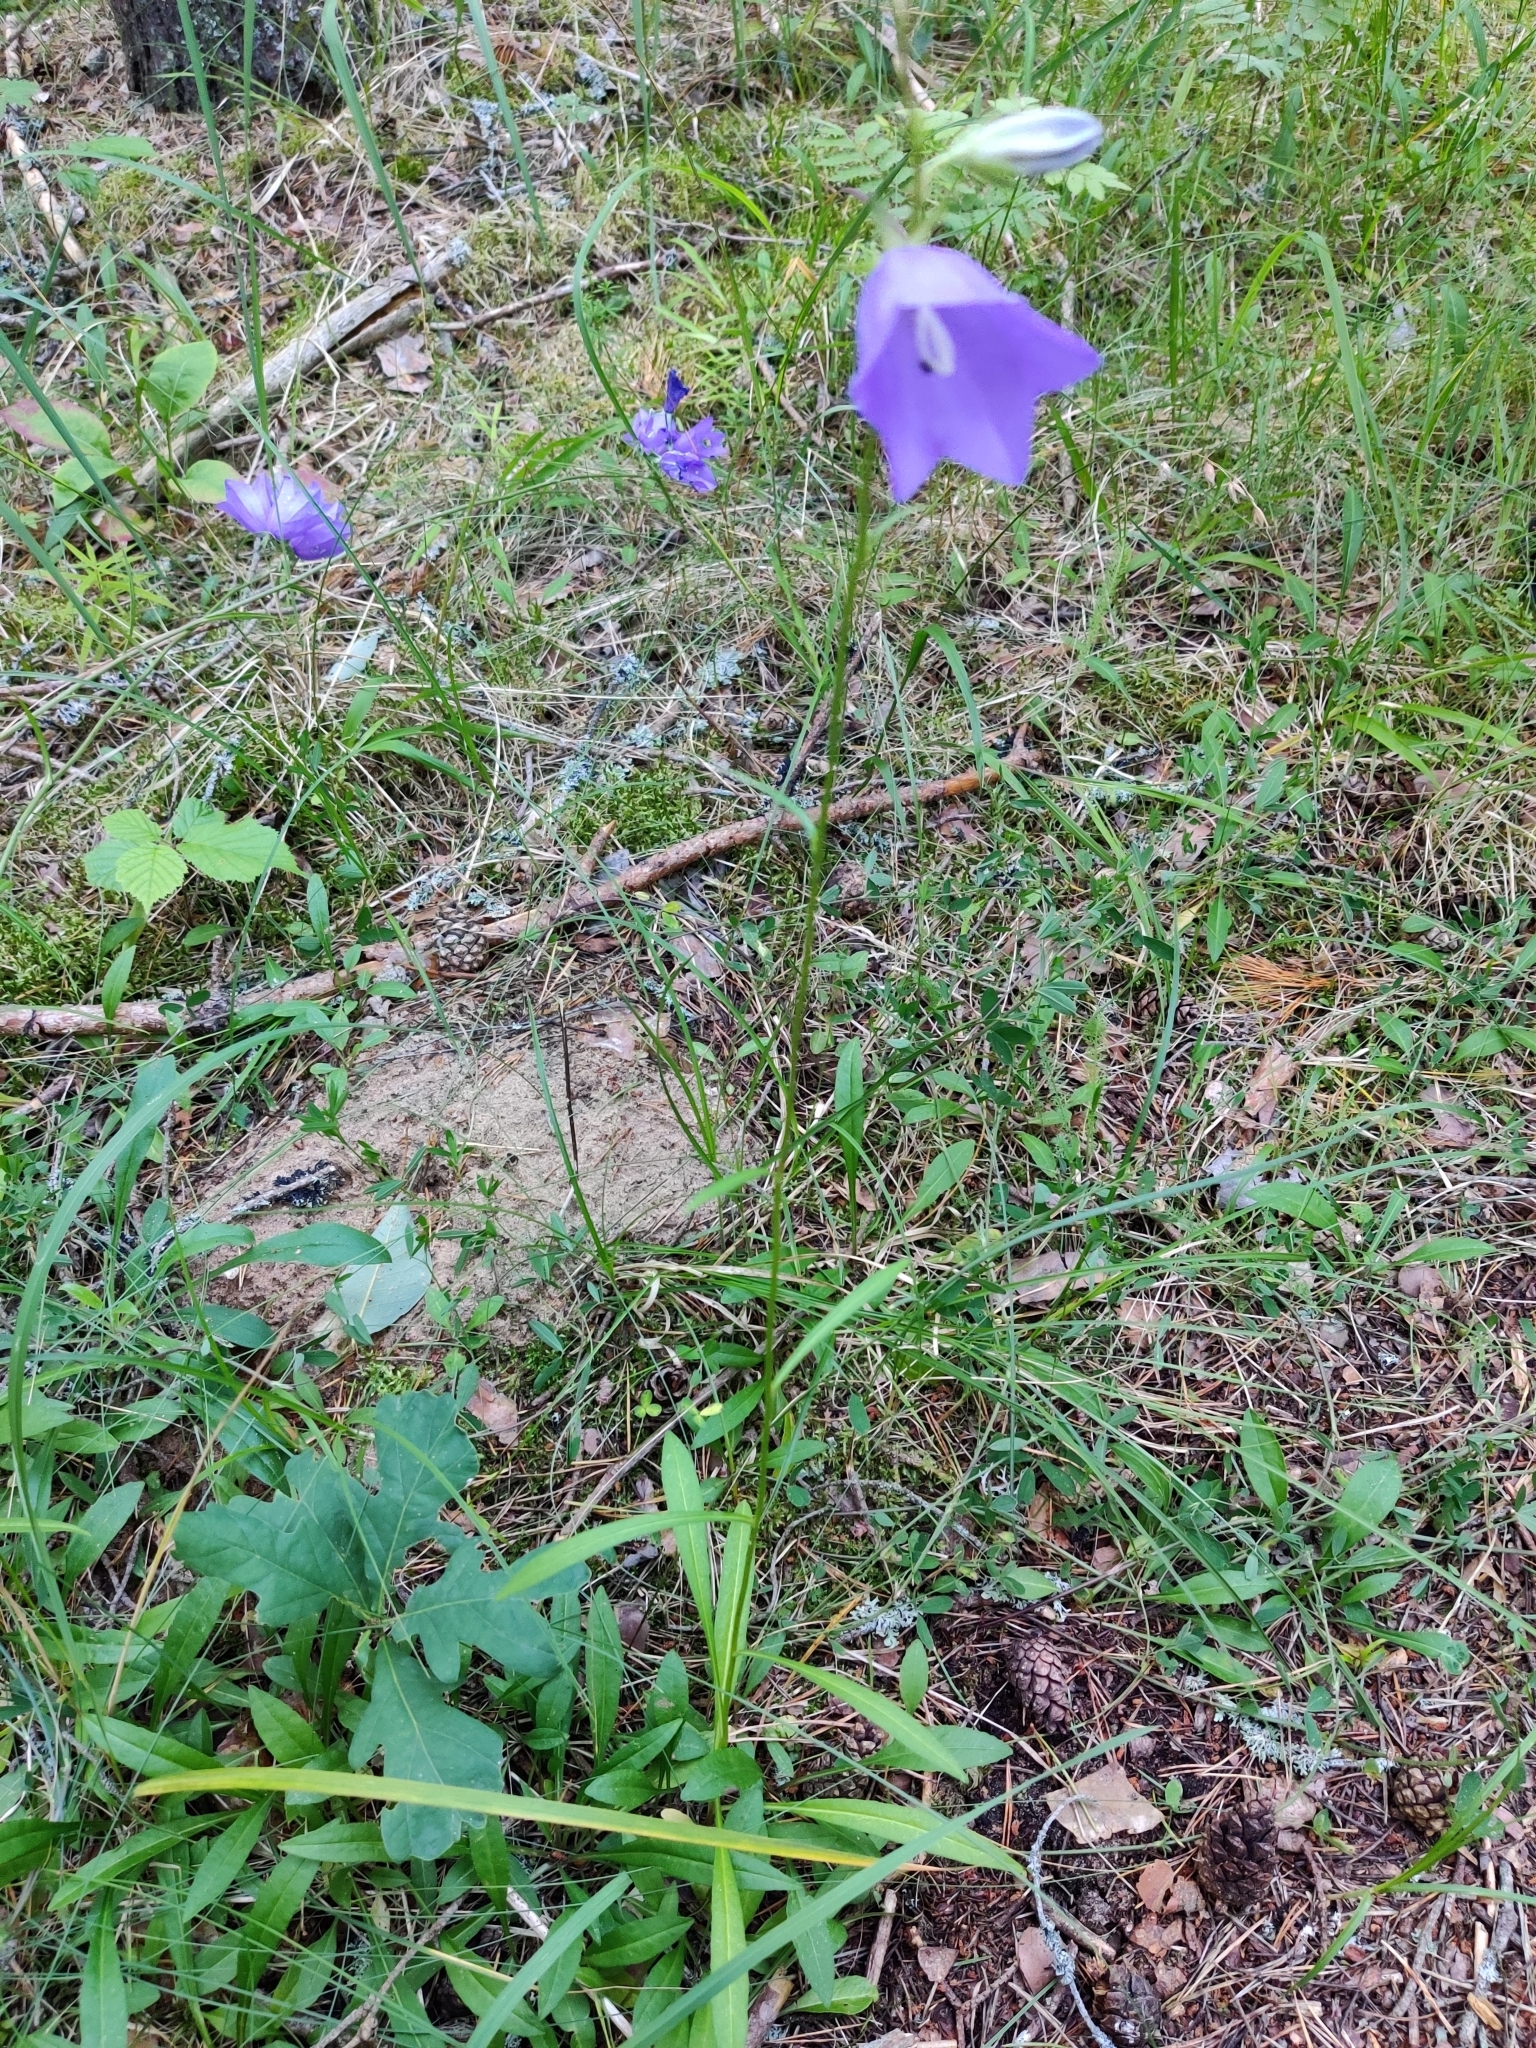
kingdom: Plantae
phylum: Tracheophyta
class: Magnoliopsida
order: Asterales
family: Campanulaceae
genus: Campanula
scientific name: Campanula persicifolia
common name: Peach-leaved bellflower
